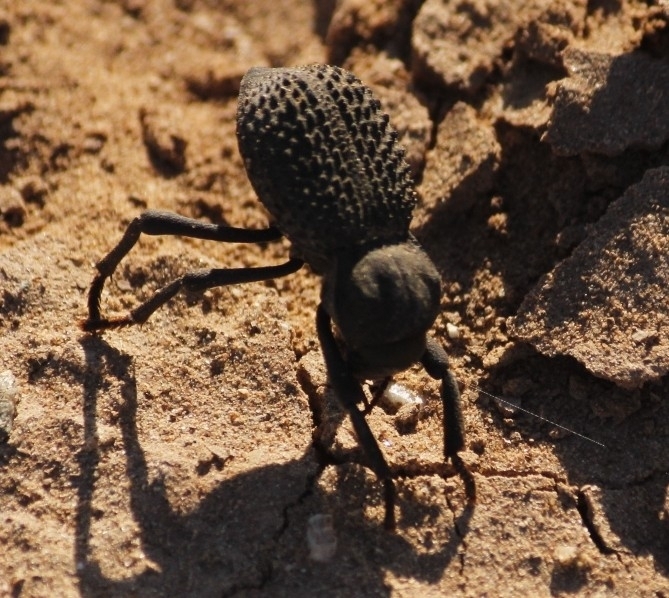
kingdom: Animalia
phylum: Arthropoda
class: Insecta
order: Coleoptera
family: Tenebrionidae
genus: Asbolus
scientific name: Asbolus verrucosus
